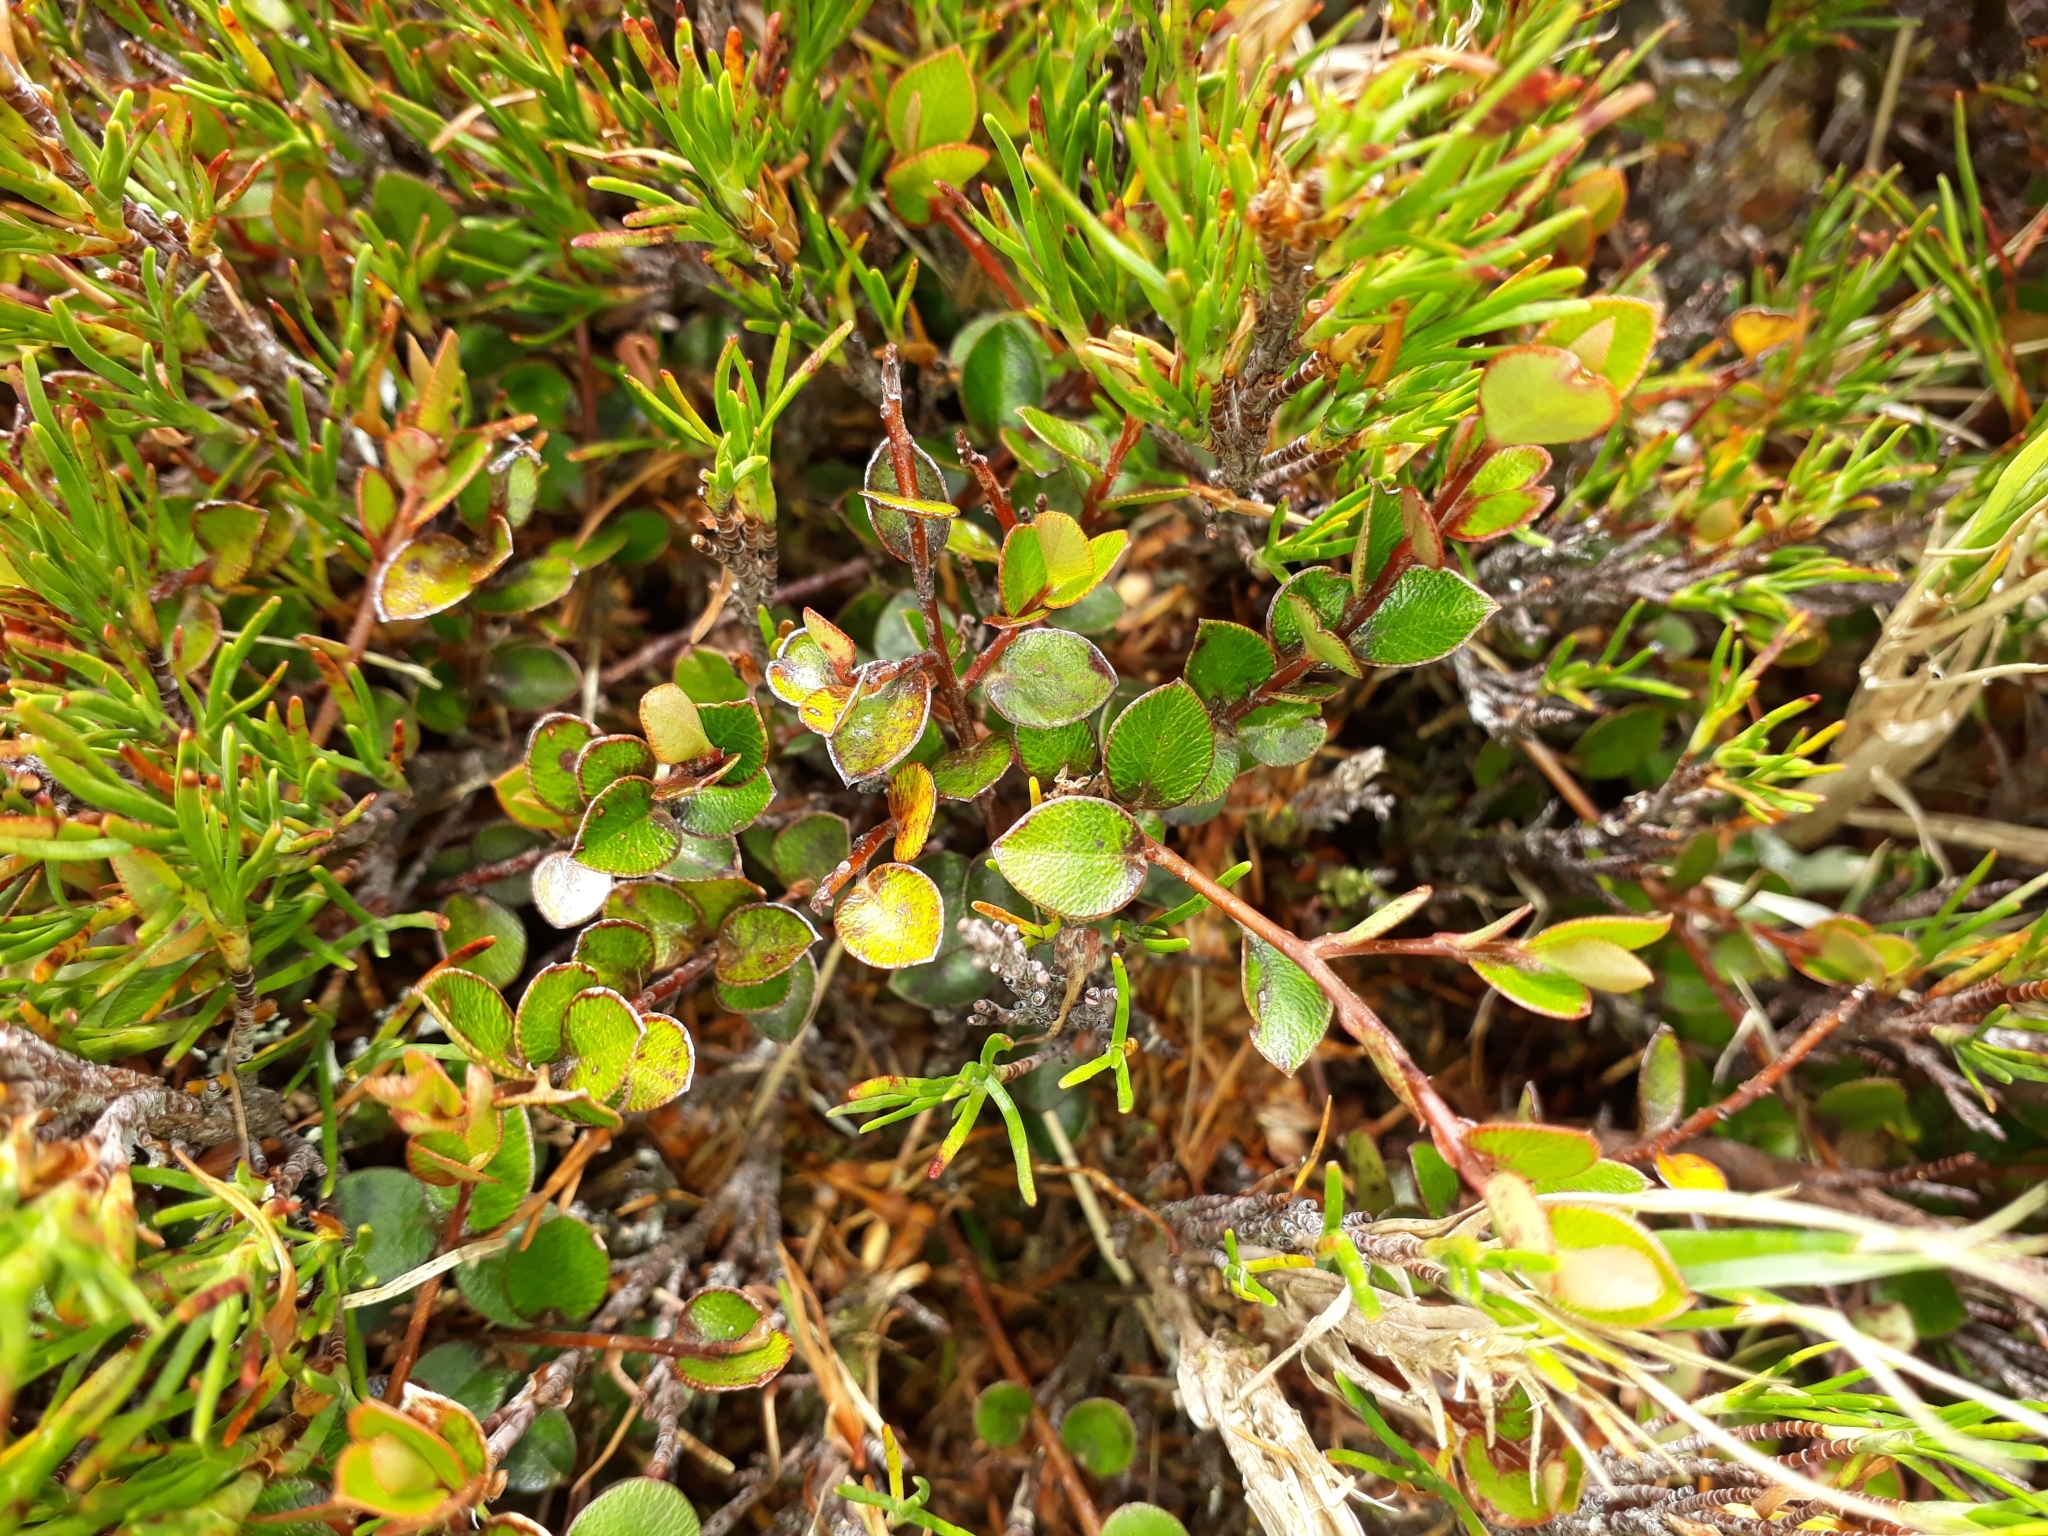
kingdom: Plantae
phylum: Tracheophyta
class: Magnoliopsida
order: Ericales
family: Primulaceae
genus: Myrsine
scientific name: Myrsine nummularia
